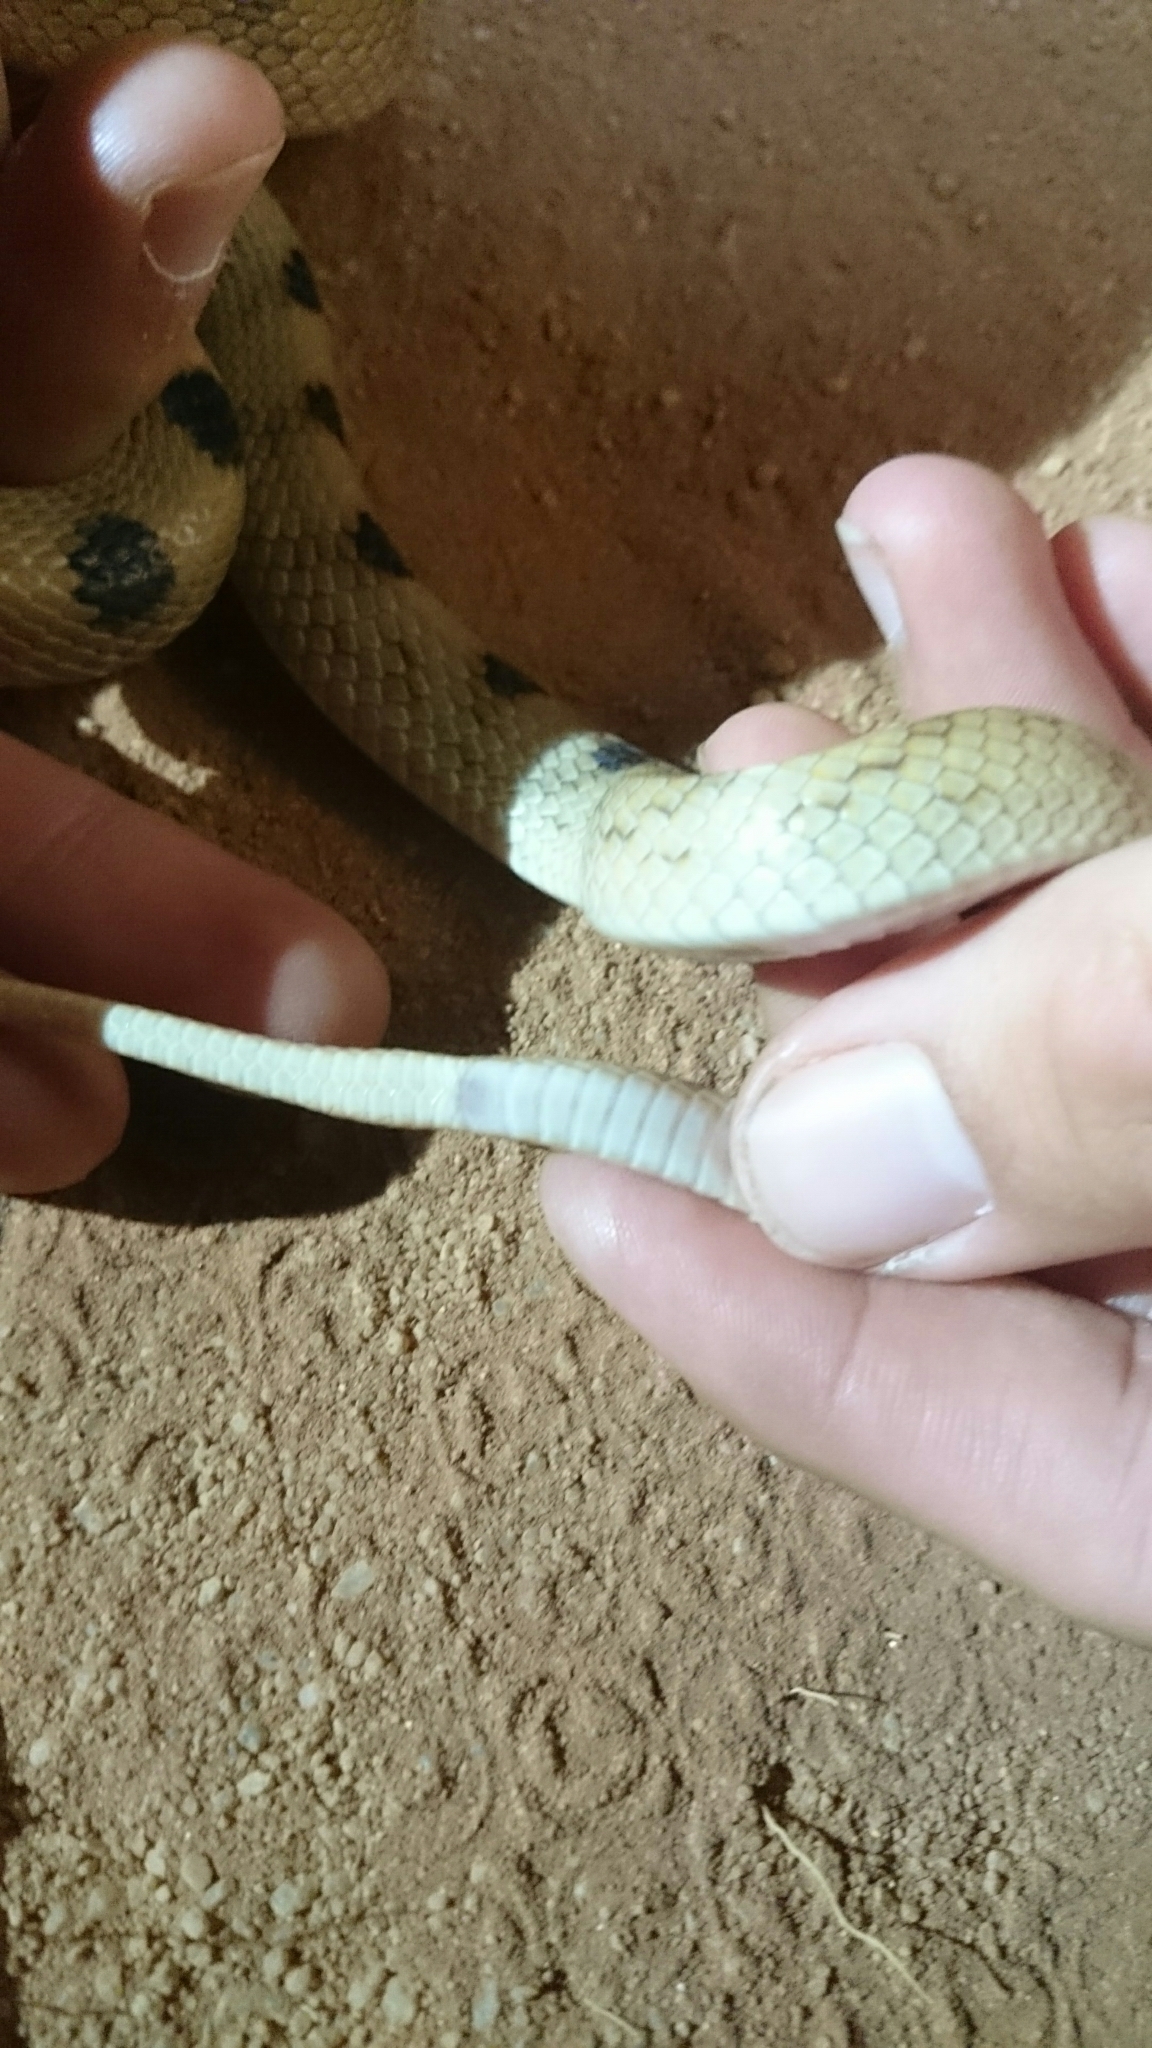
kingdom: Animalia
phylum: Chordata
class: Squamata
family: Colubridae
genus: Telescopus
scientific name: Telescopus beetzi
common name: Karoo tiger snake
